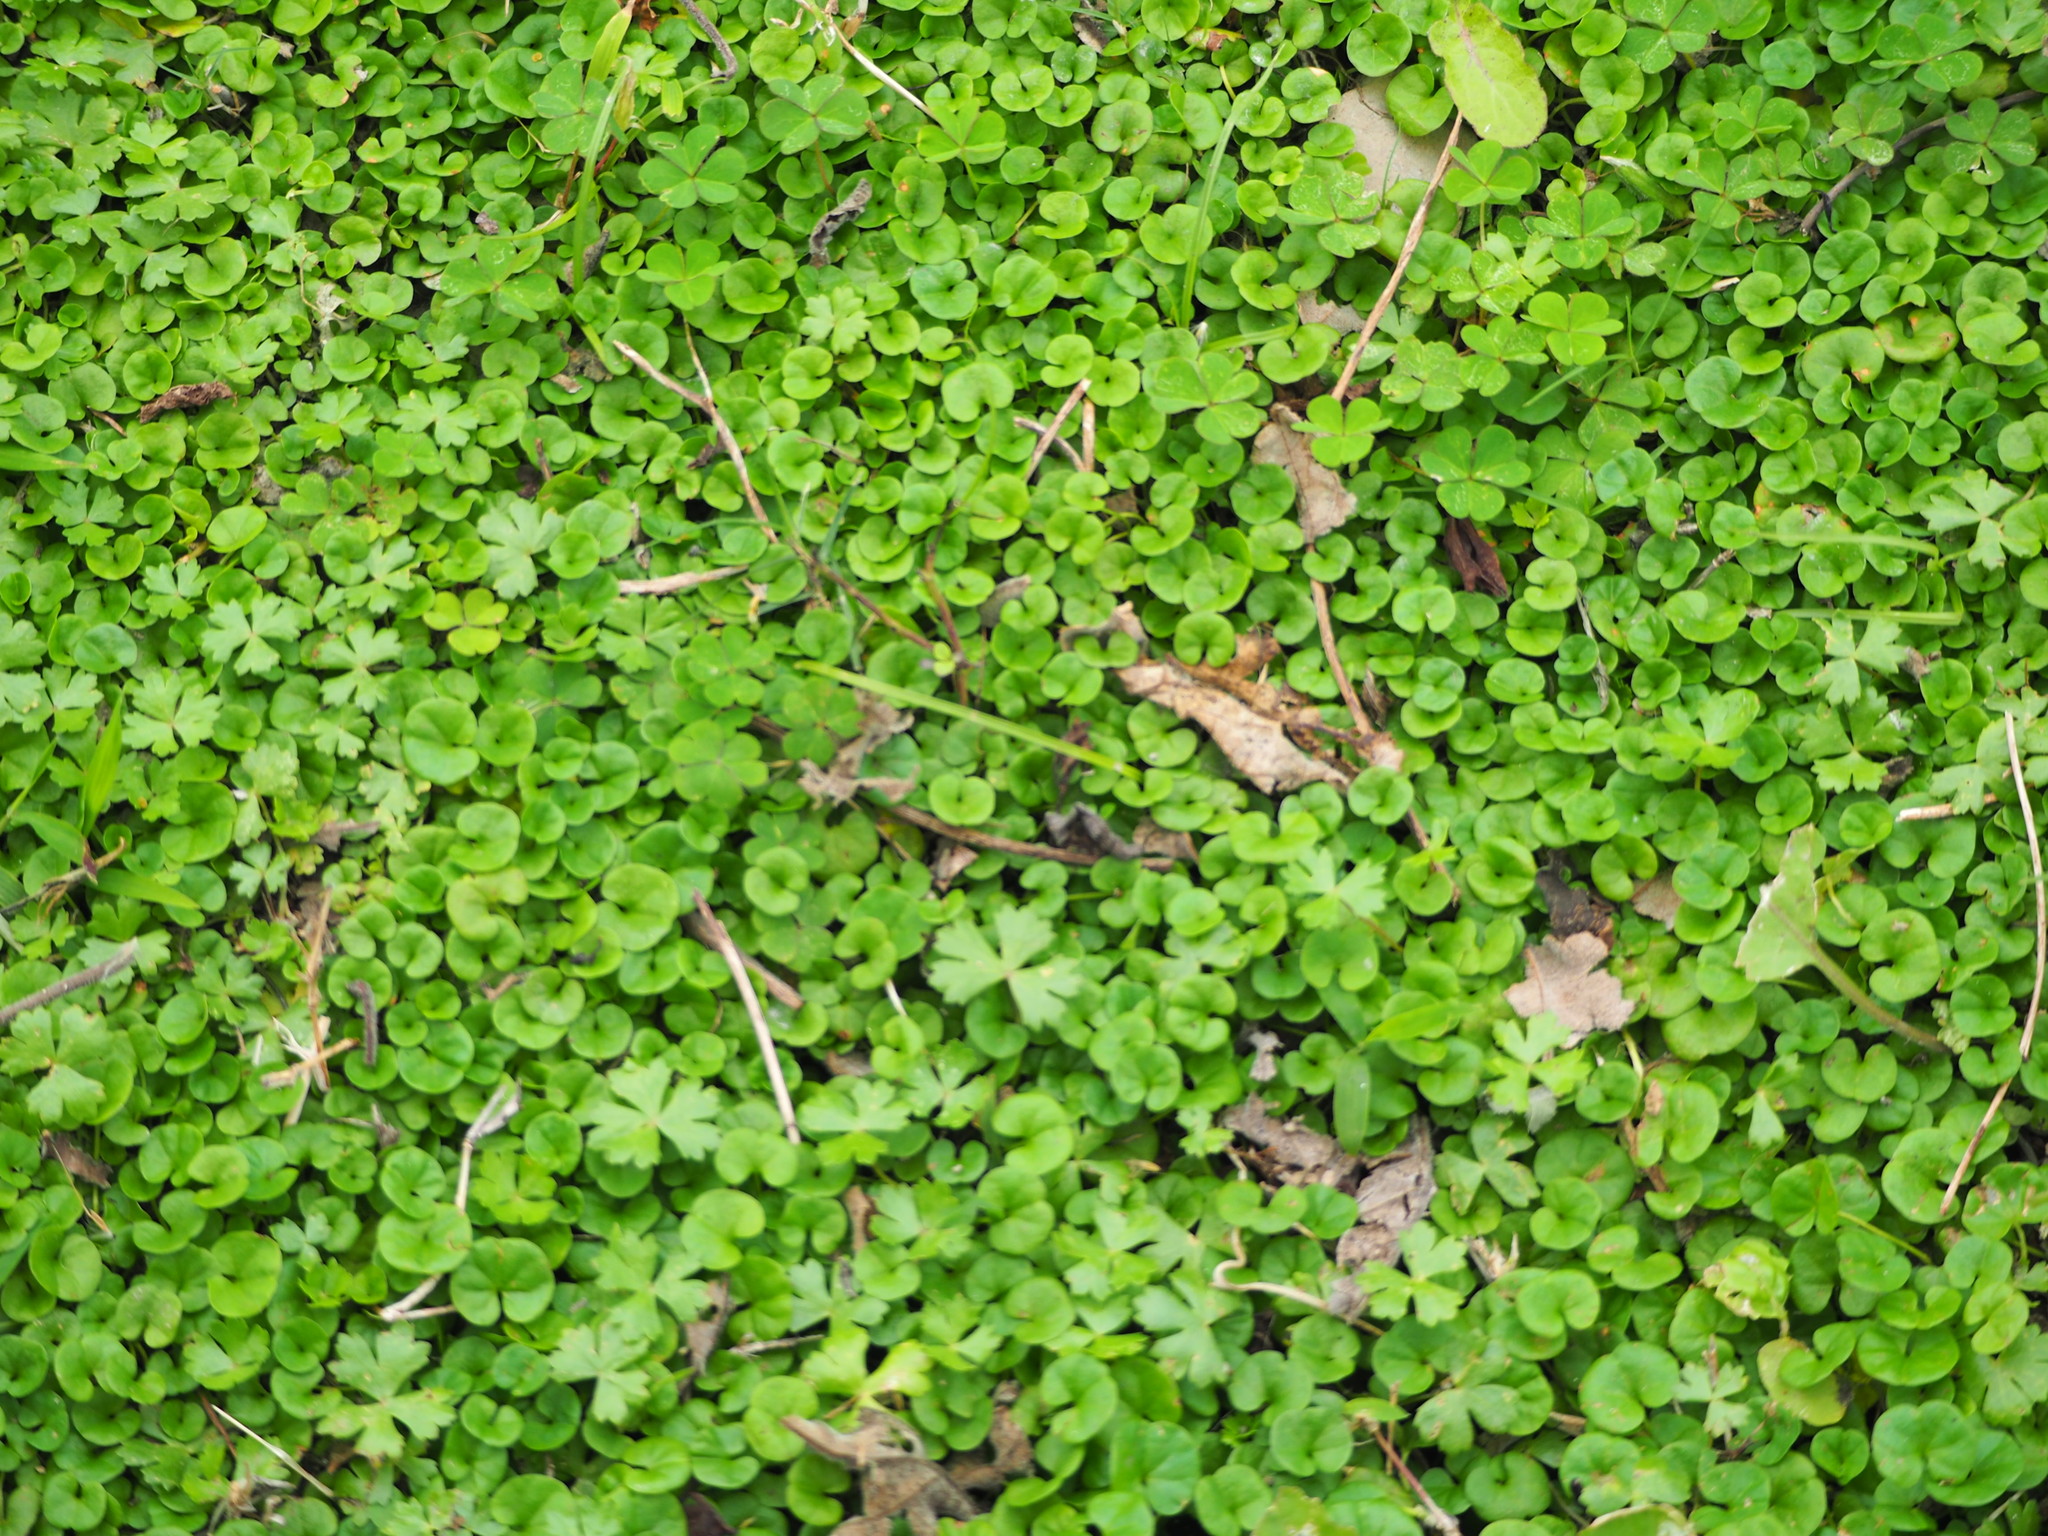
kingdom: Plantae
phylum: Tracheophyta
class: Magnoliopsida
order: Solanales
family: Convolvulaceae
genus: Dichondra
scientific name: Dichondra micrantha
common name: Kidneyweed
